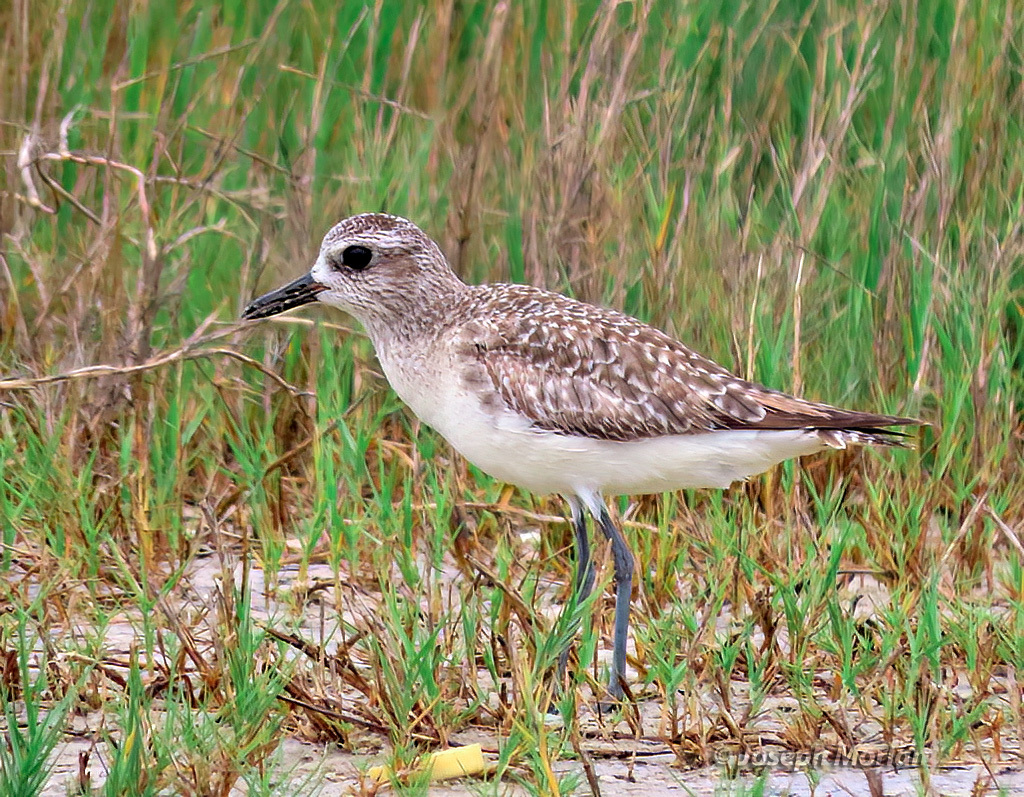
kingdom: Animalia
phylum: Chordata
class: Aves
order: Charadriiformes
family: Charadriidae
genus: Pluvialis
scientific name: Pluvialis squatarola
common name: Grey plover
